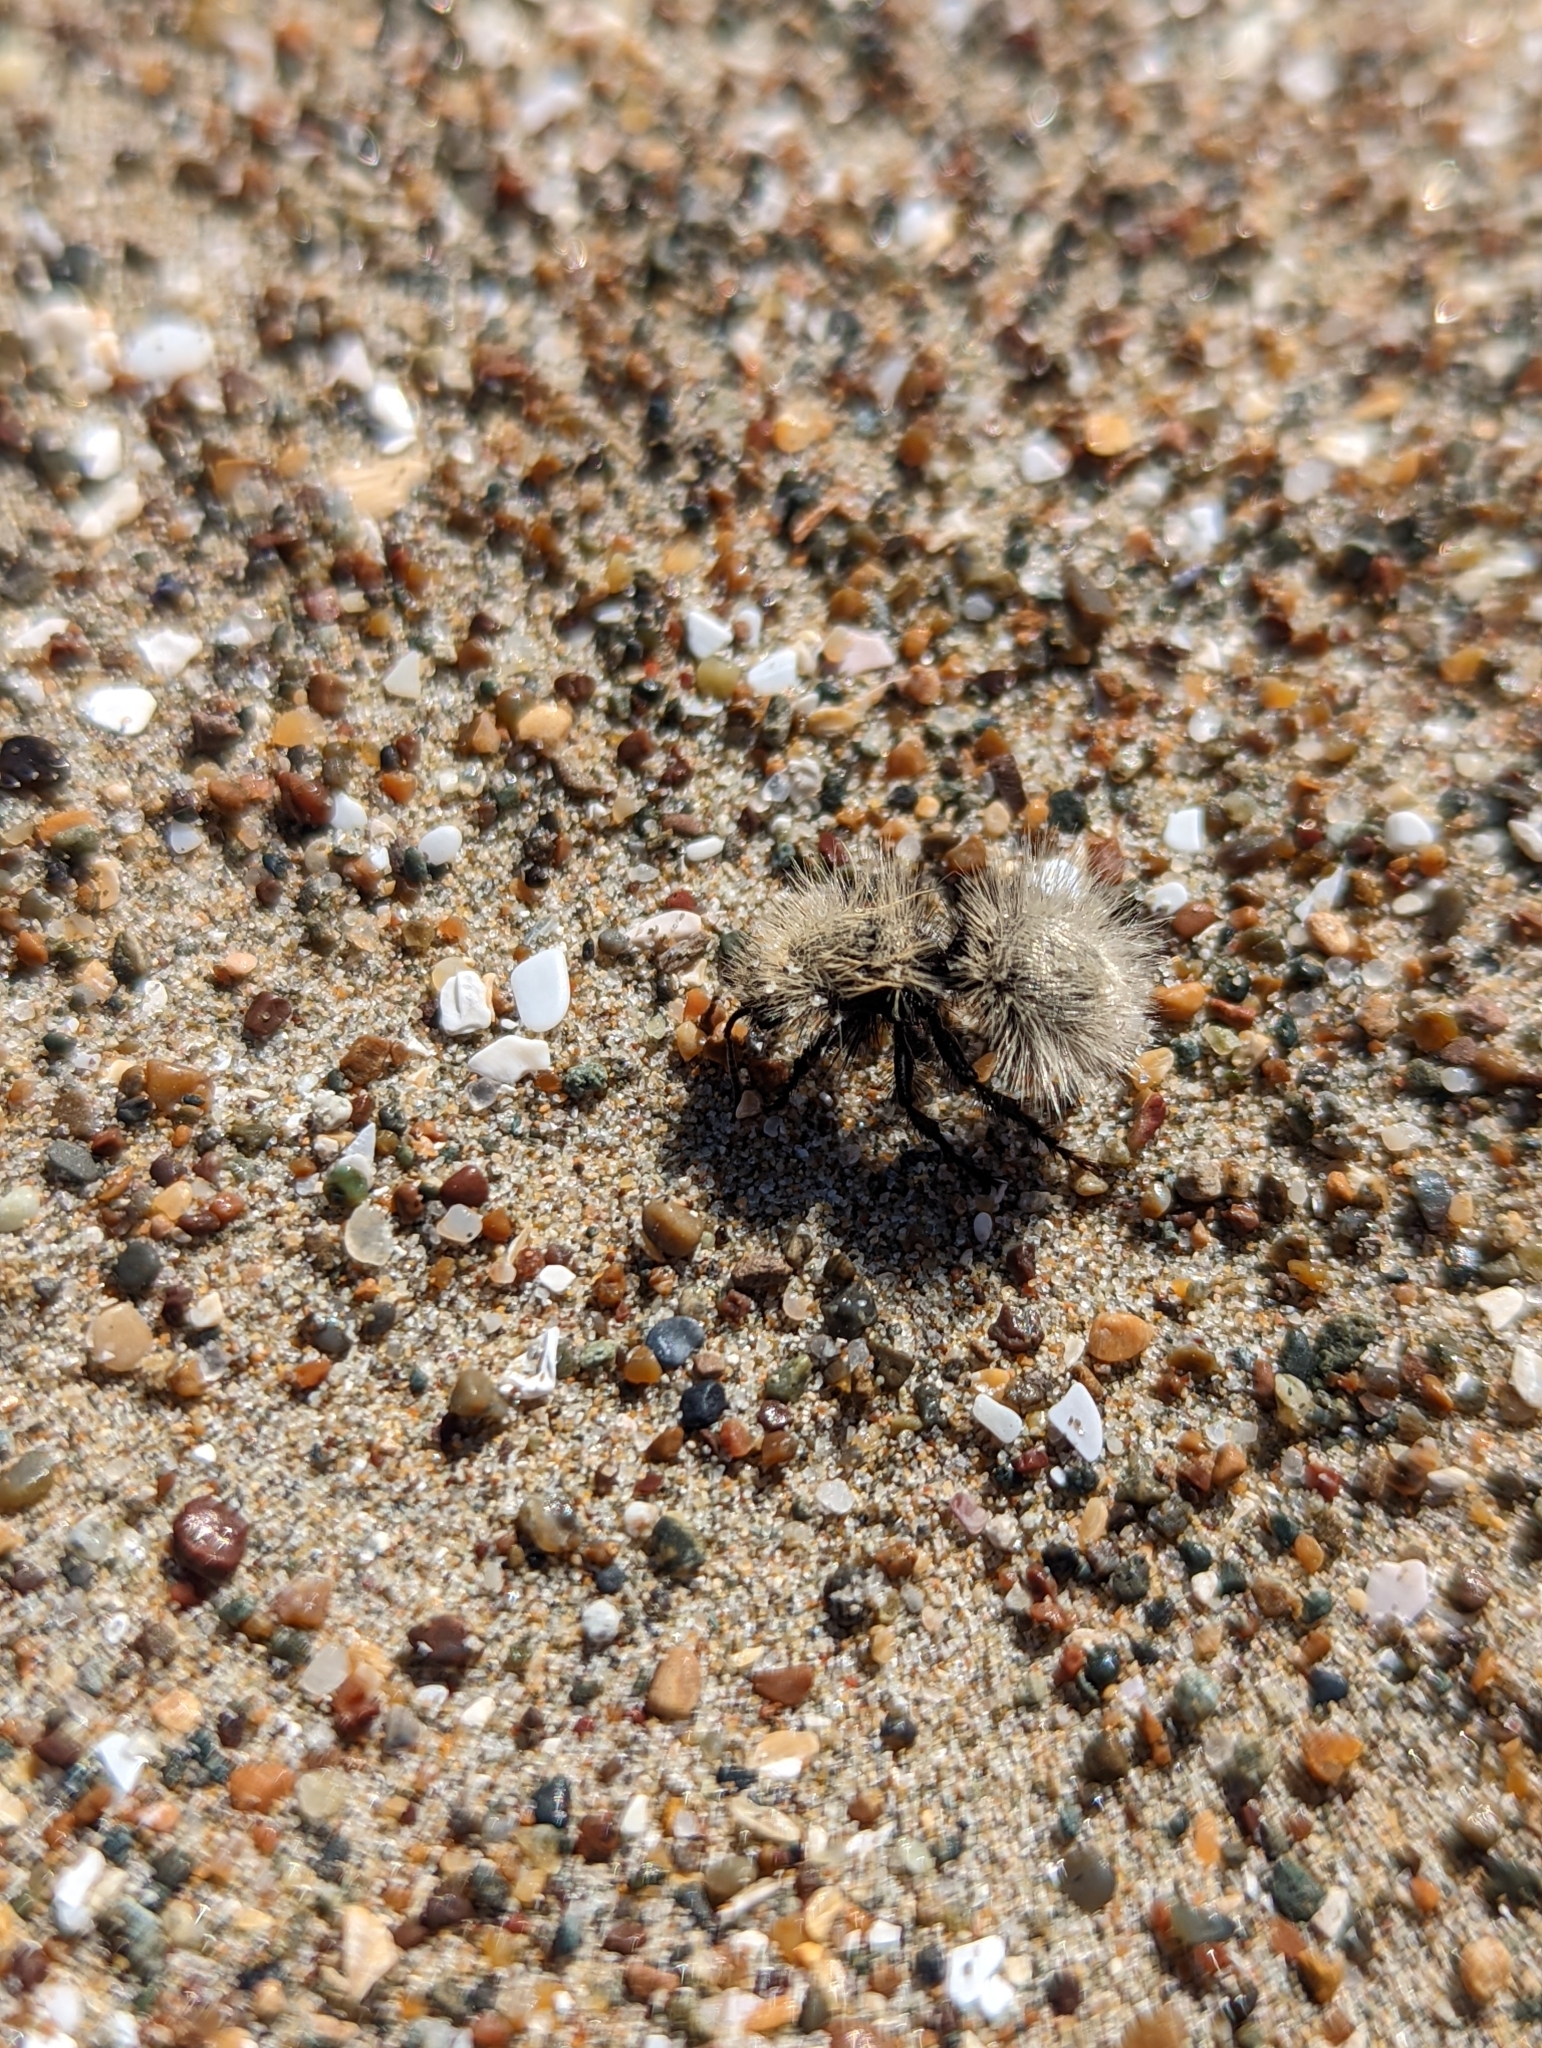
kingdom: Animalia
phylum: Arthropoda
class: Insecta
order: Hymenoptera
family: Mutillidae
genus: Dasymutilla
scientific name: Dasymutilla
